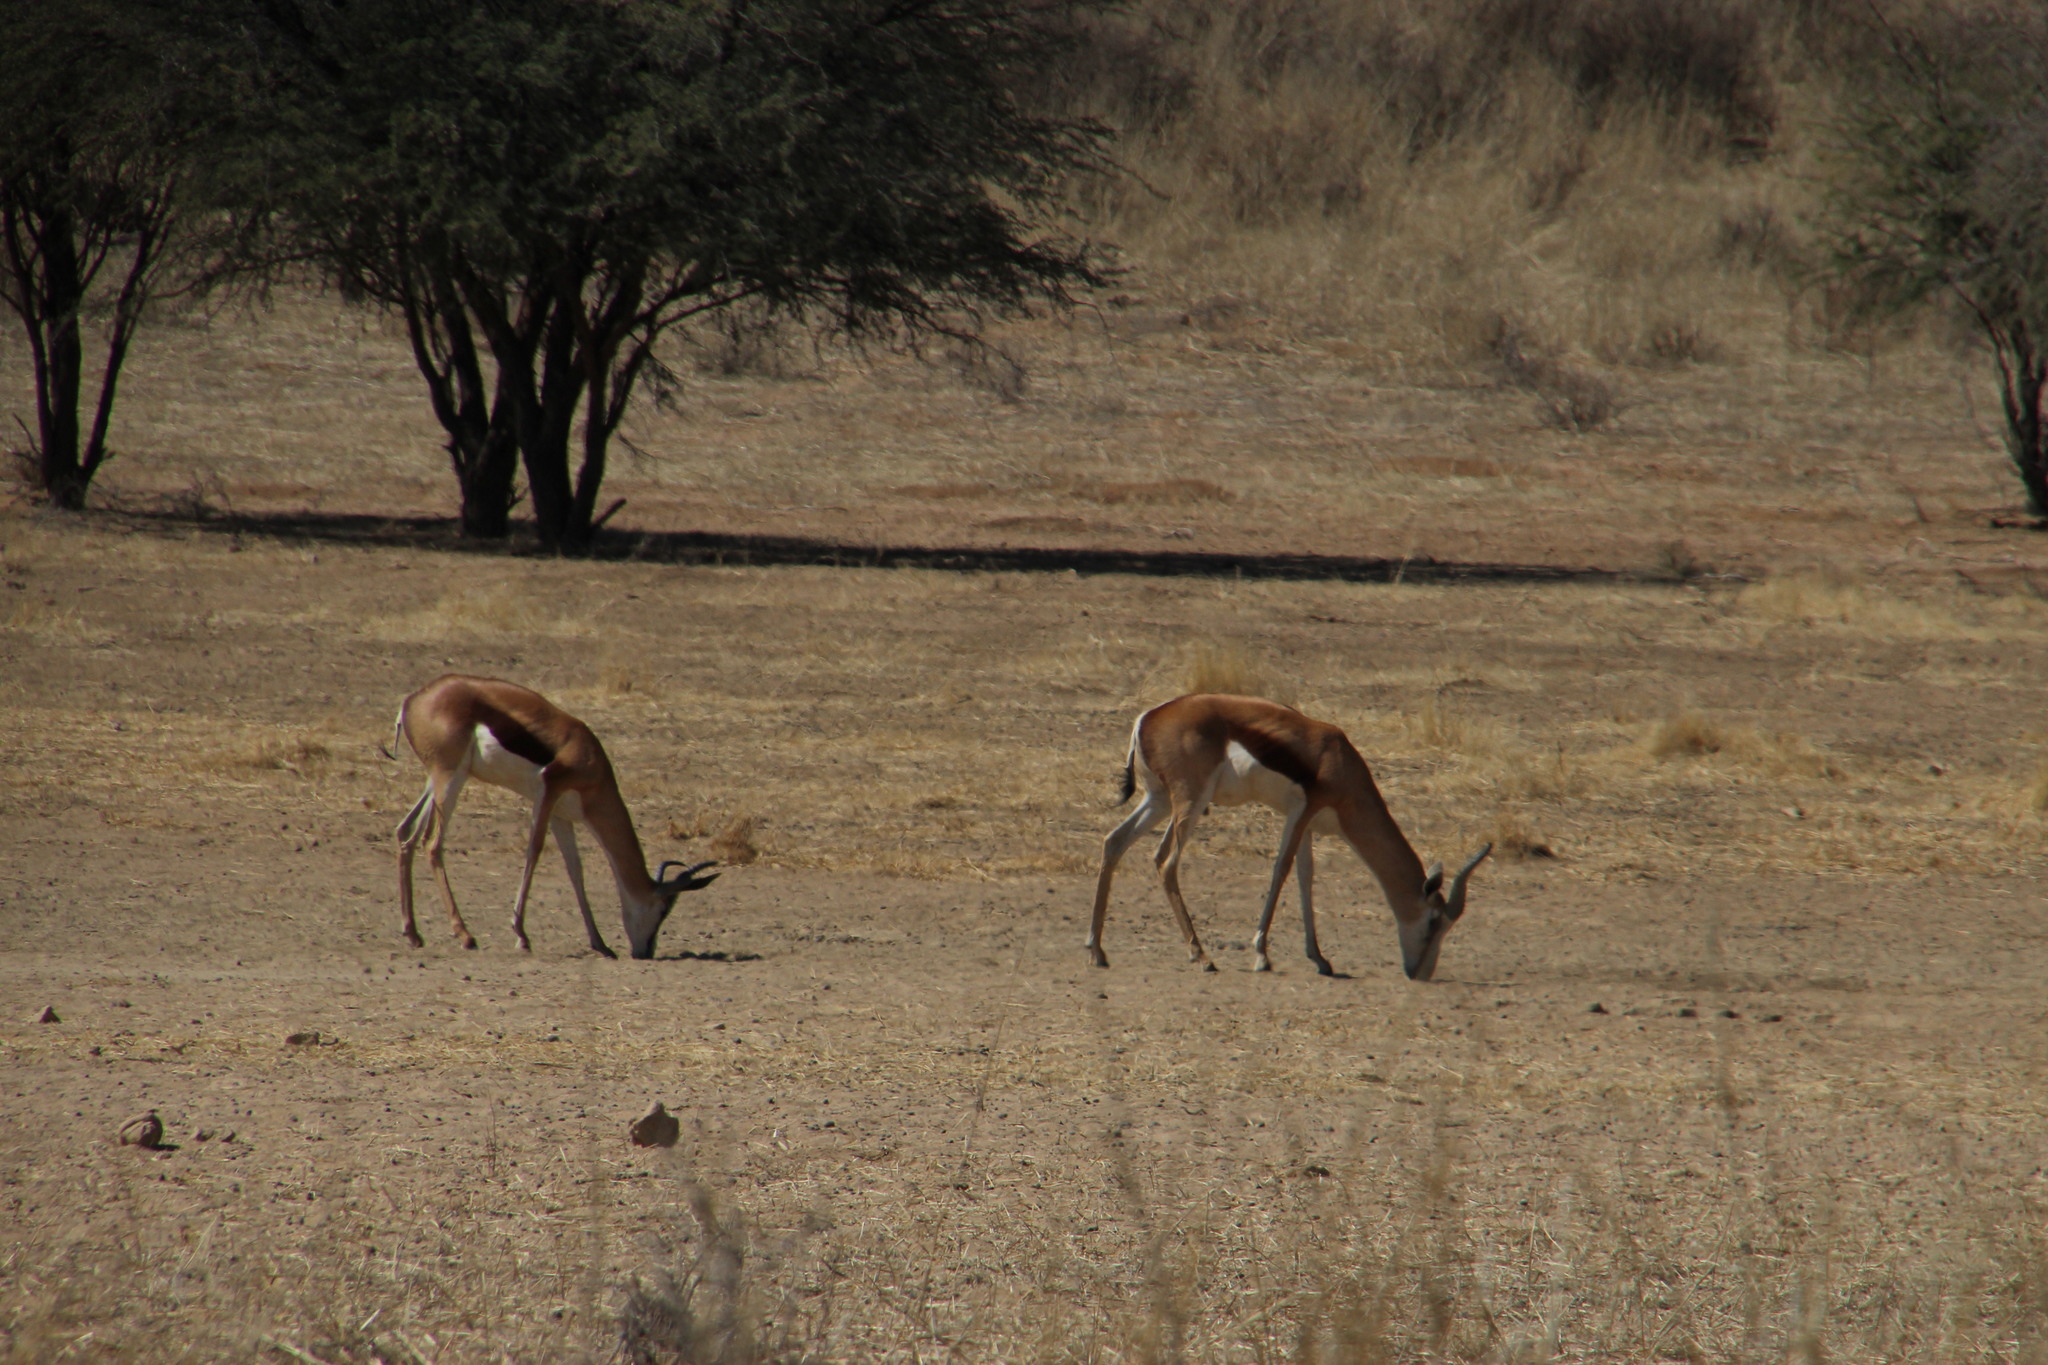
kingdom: Animalia
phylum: Chordata
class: Mammalia
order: Artiodactyla
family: Bovidae
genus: Antidorcas
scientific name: Antidorcas marsupialis
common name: Springbok
